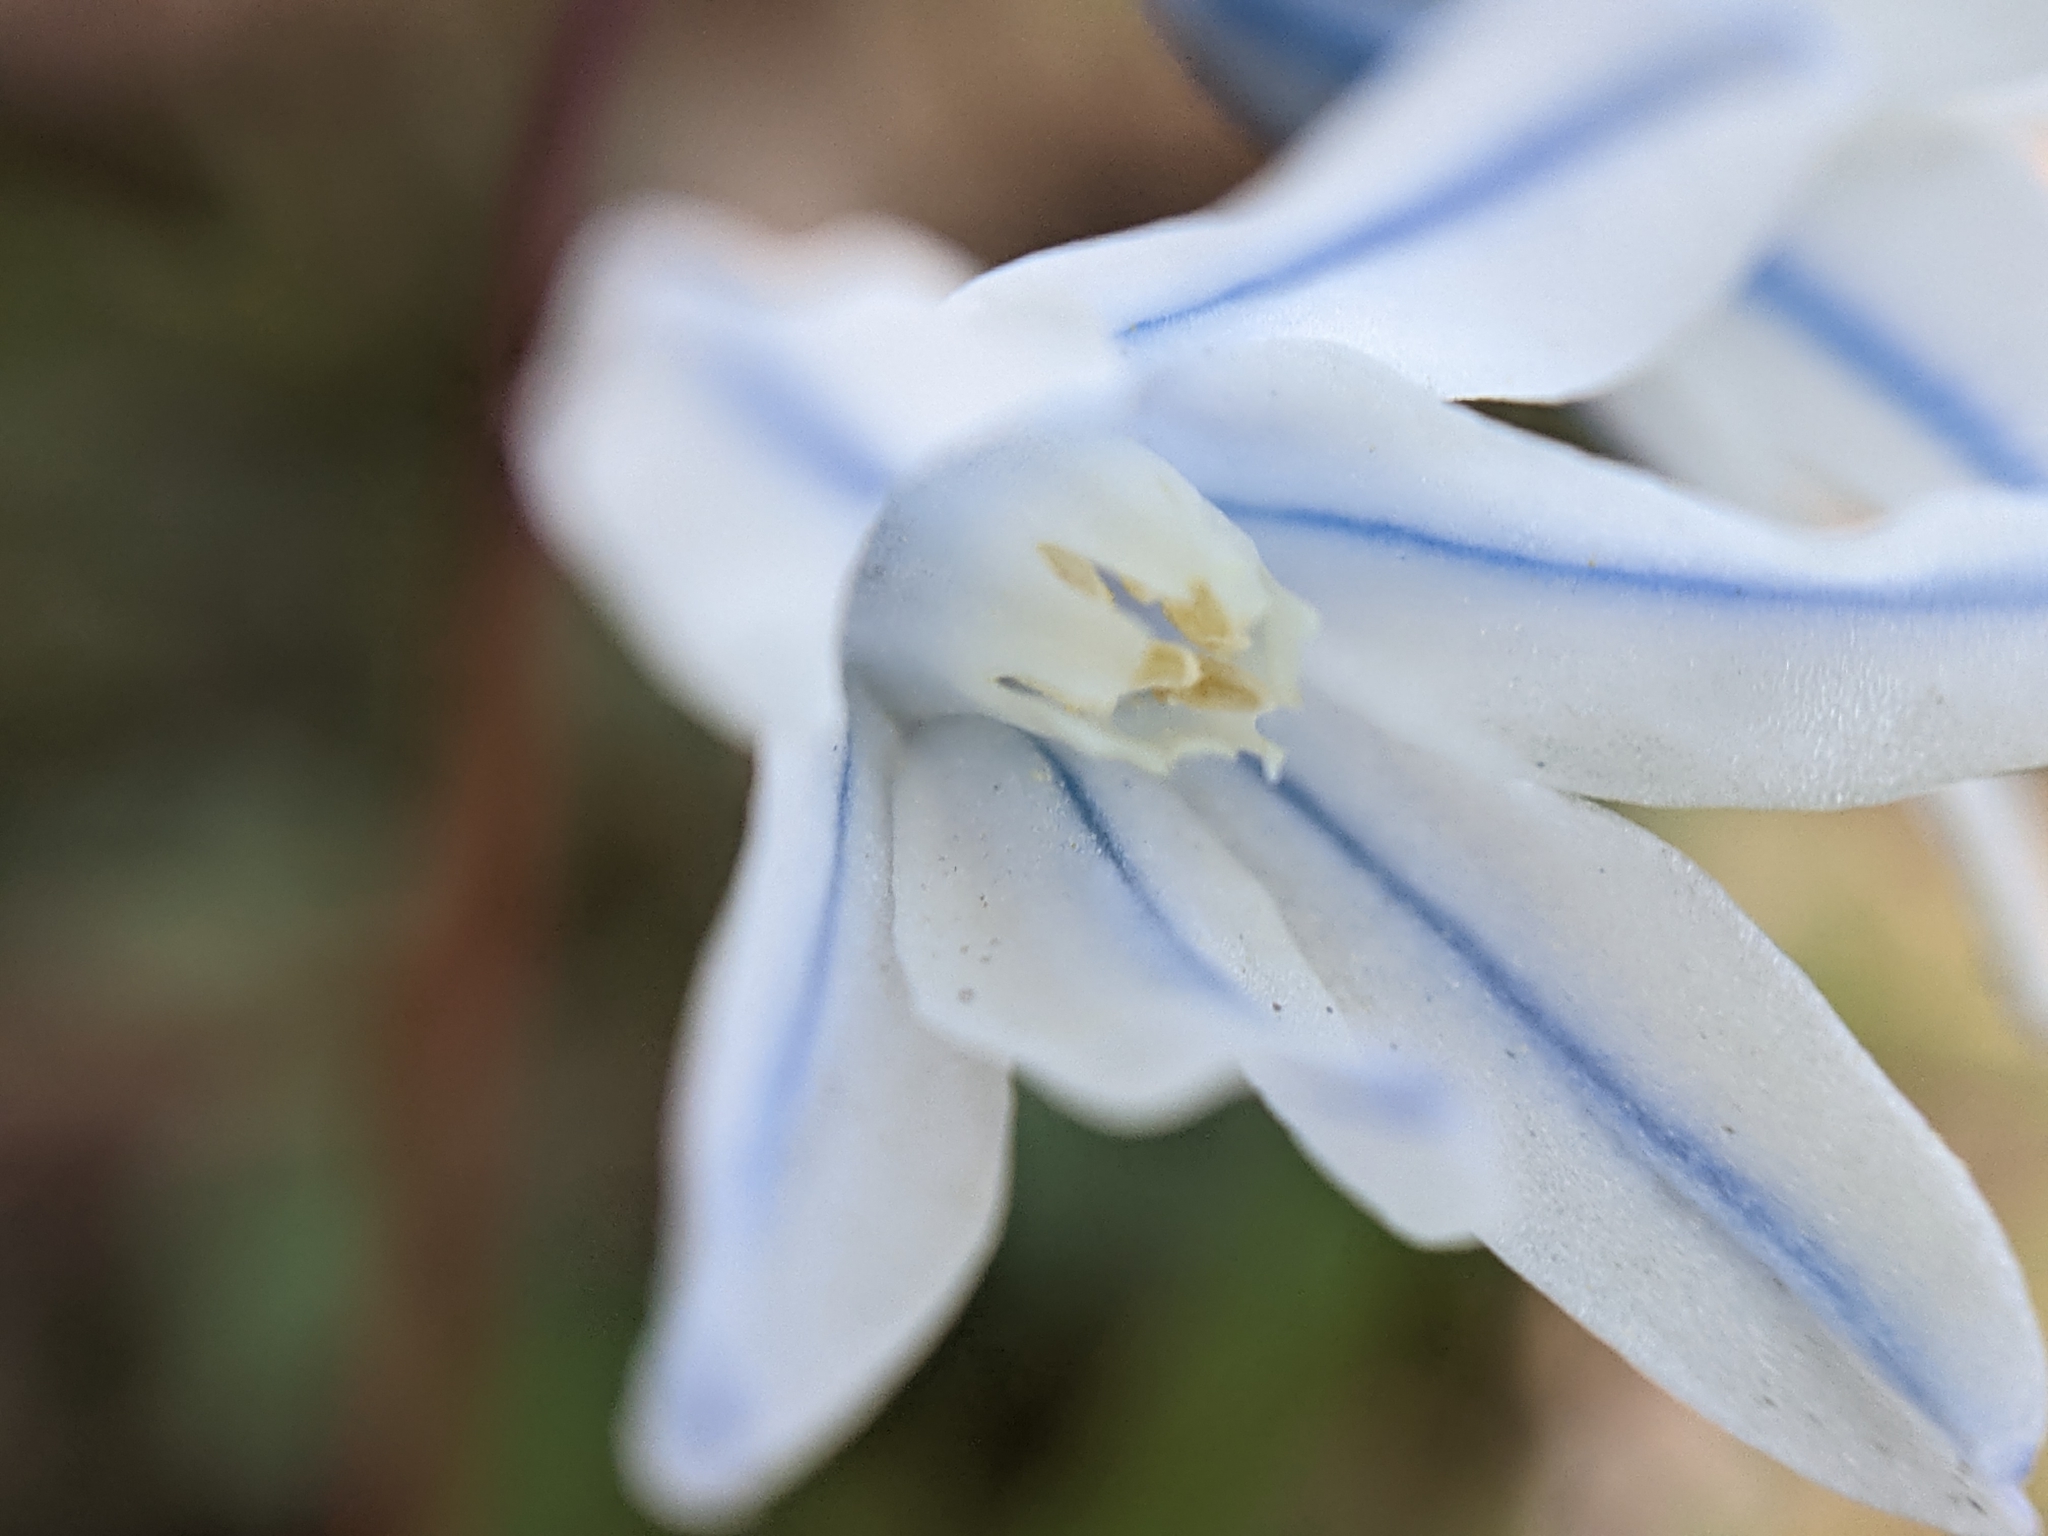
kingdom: Plantae
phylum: Tracheophyta
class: Liliopsida
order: Asparagales
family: Asparagaceae
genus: Puschkinia
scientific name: Puschkinia scilloides
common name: Striped squill
